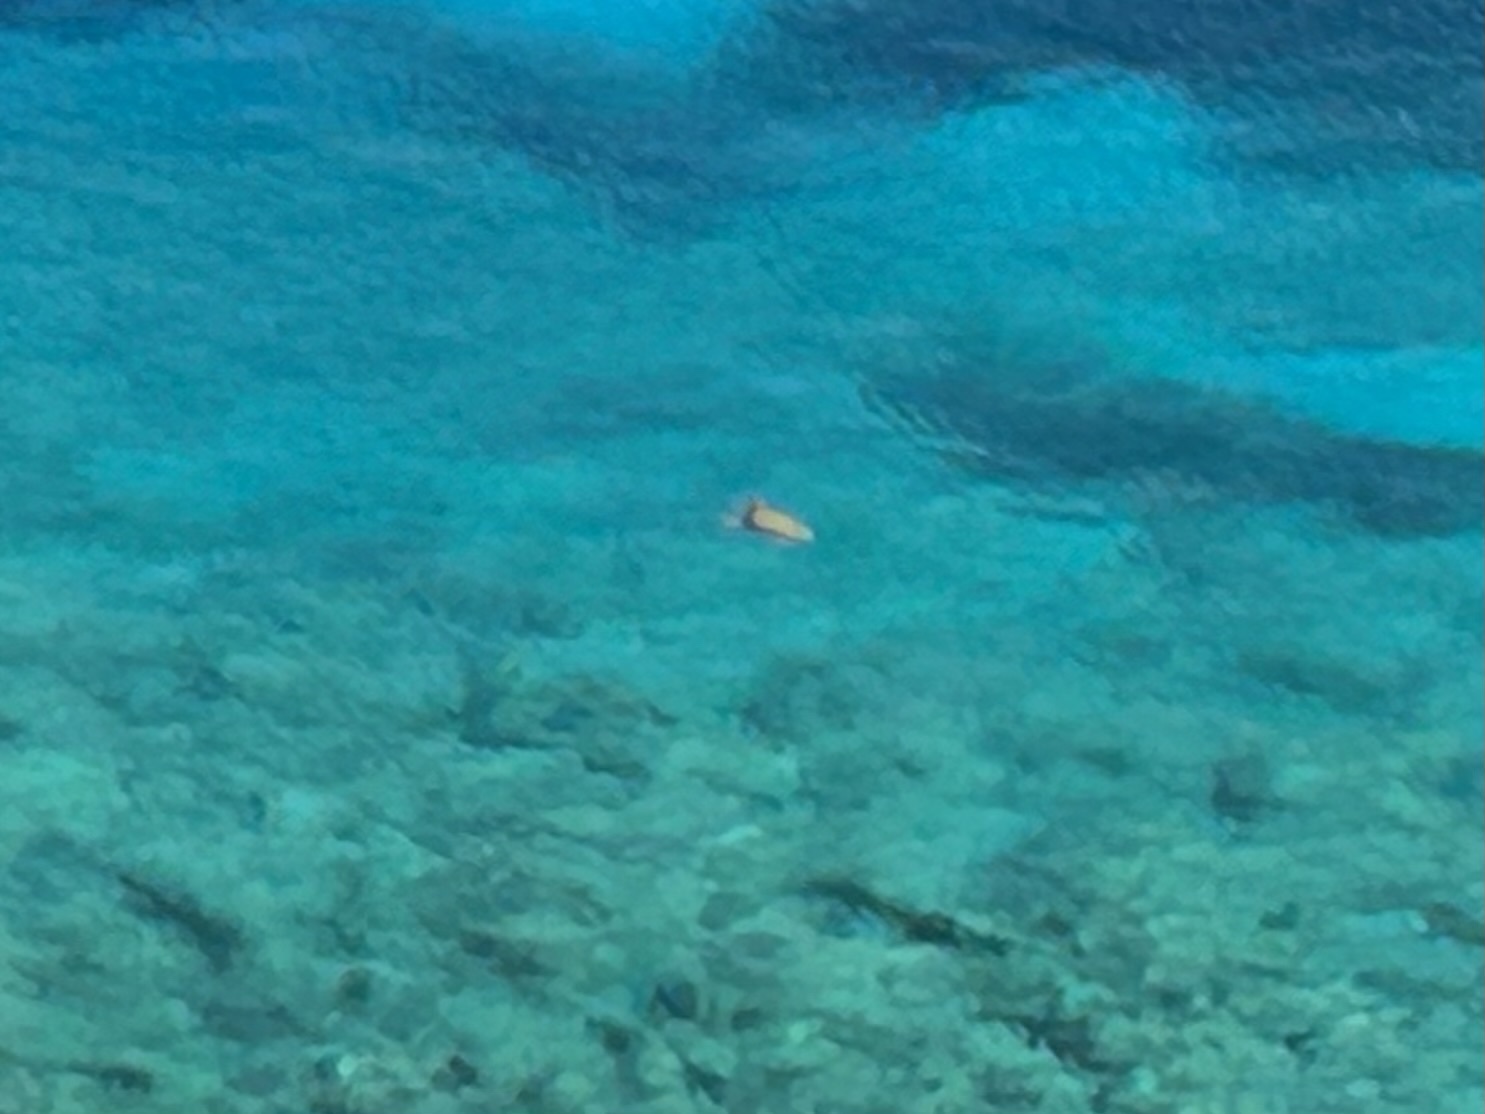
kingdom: Animalia
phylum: Chordata
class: Testudines
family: Cheloniidae
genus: Caretta
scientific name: Caretta caretta
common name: Loggerhead sea turtle
